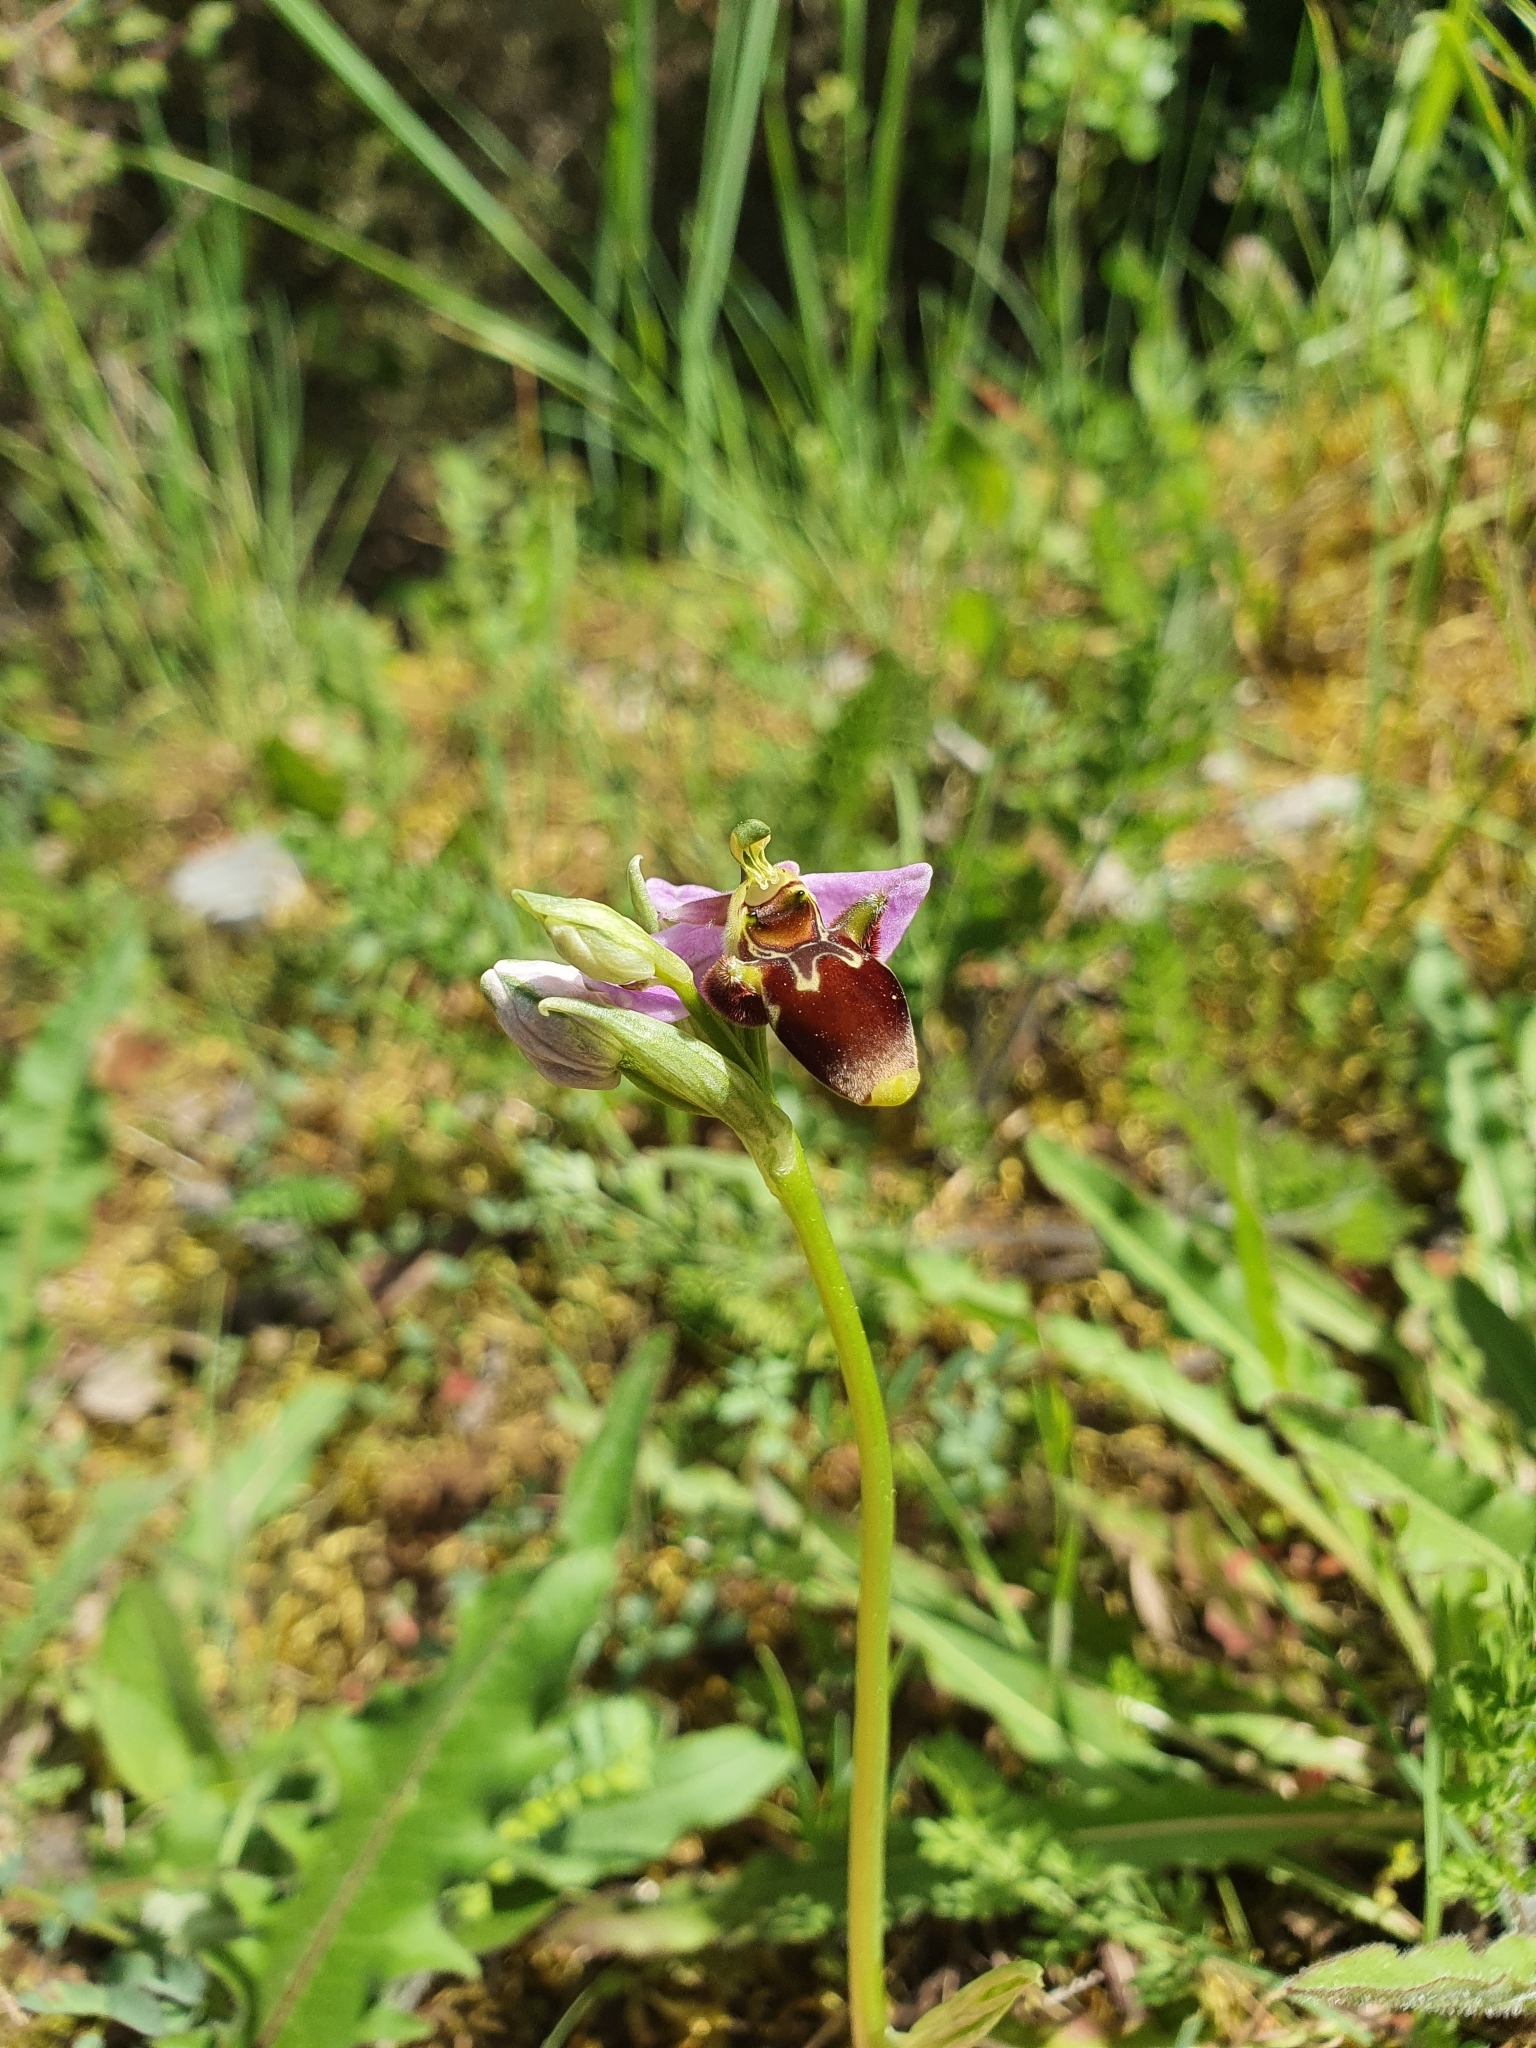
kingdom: Plantae
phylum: Tracheophyta
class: Liliopsida
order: Asparagales
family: Orchidaceae
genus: Ophrys
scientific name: Ophrys scolopax
